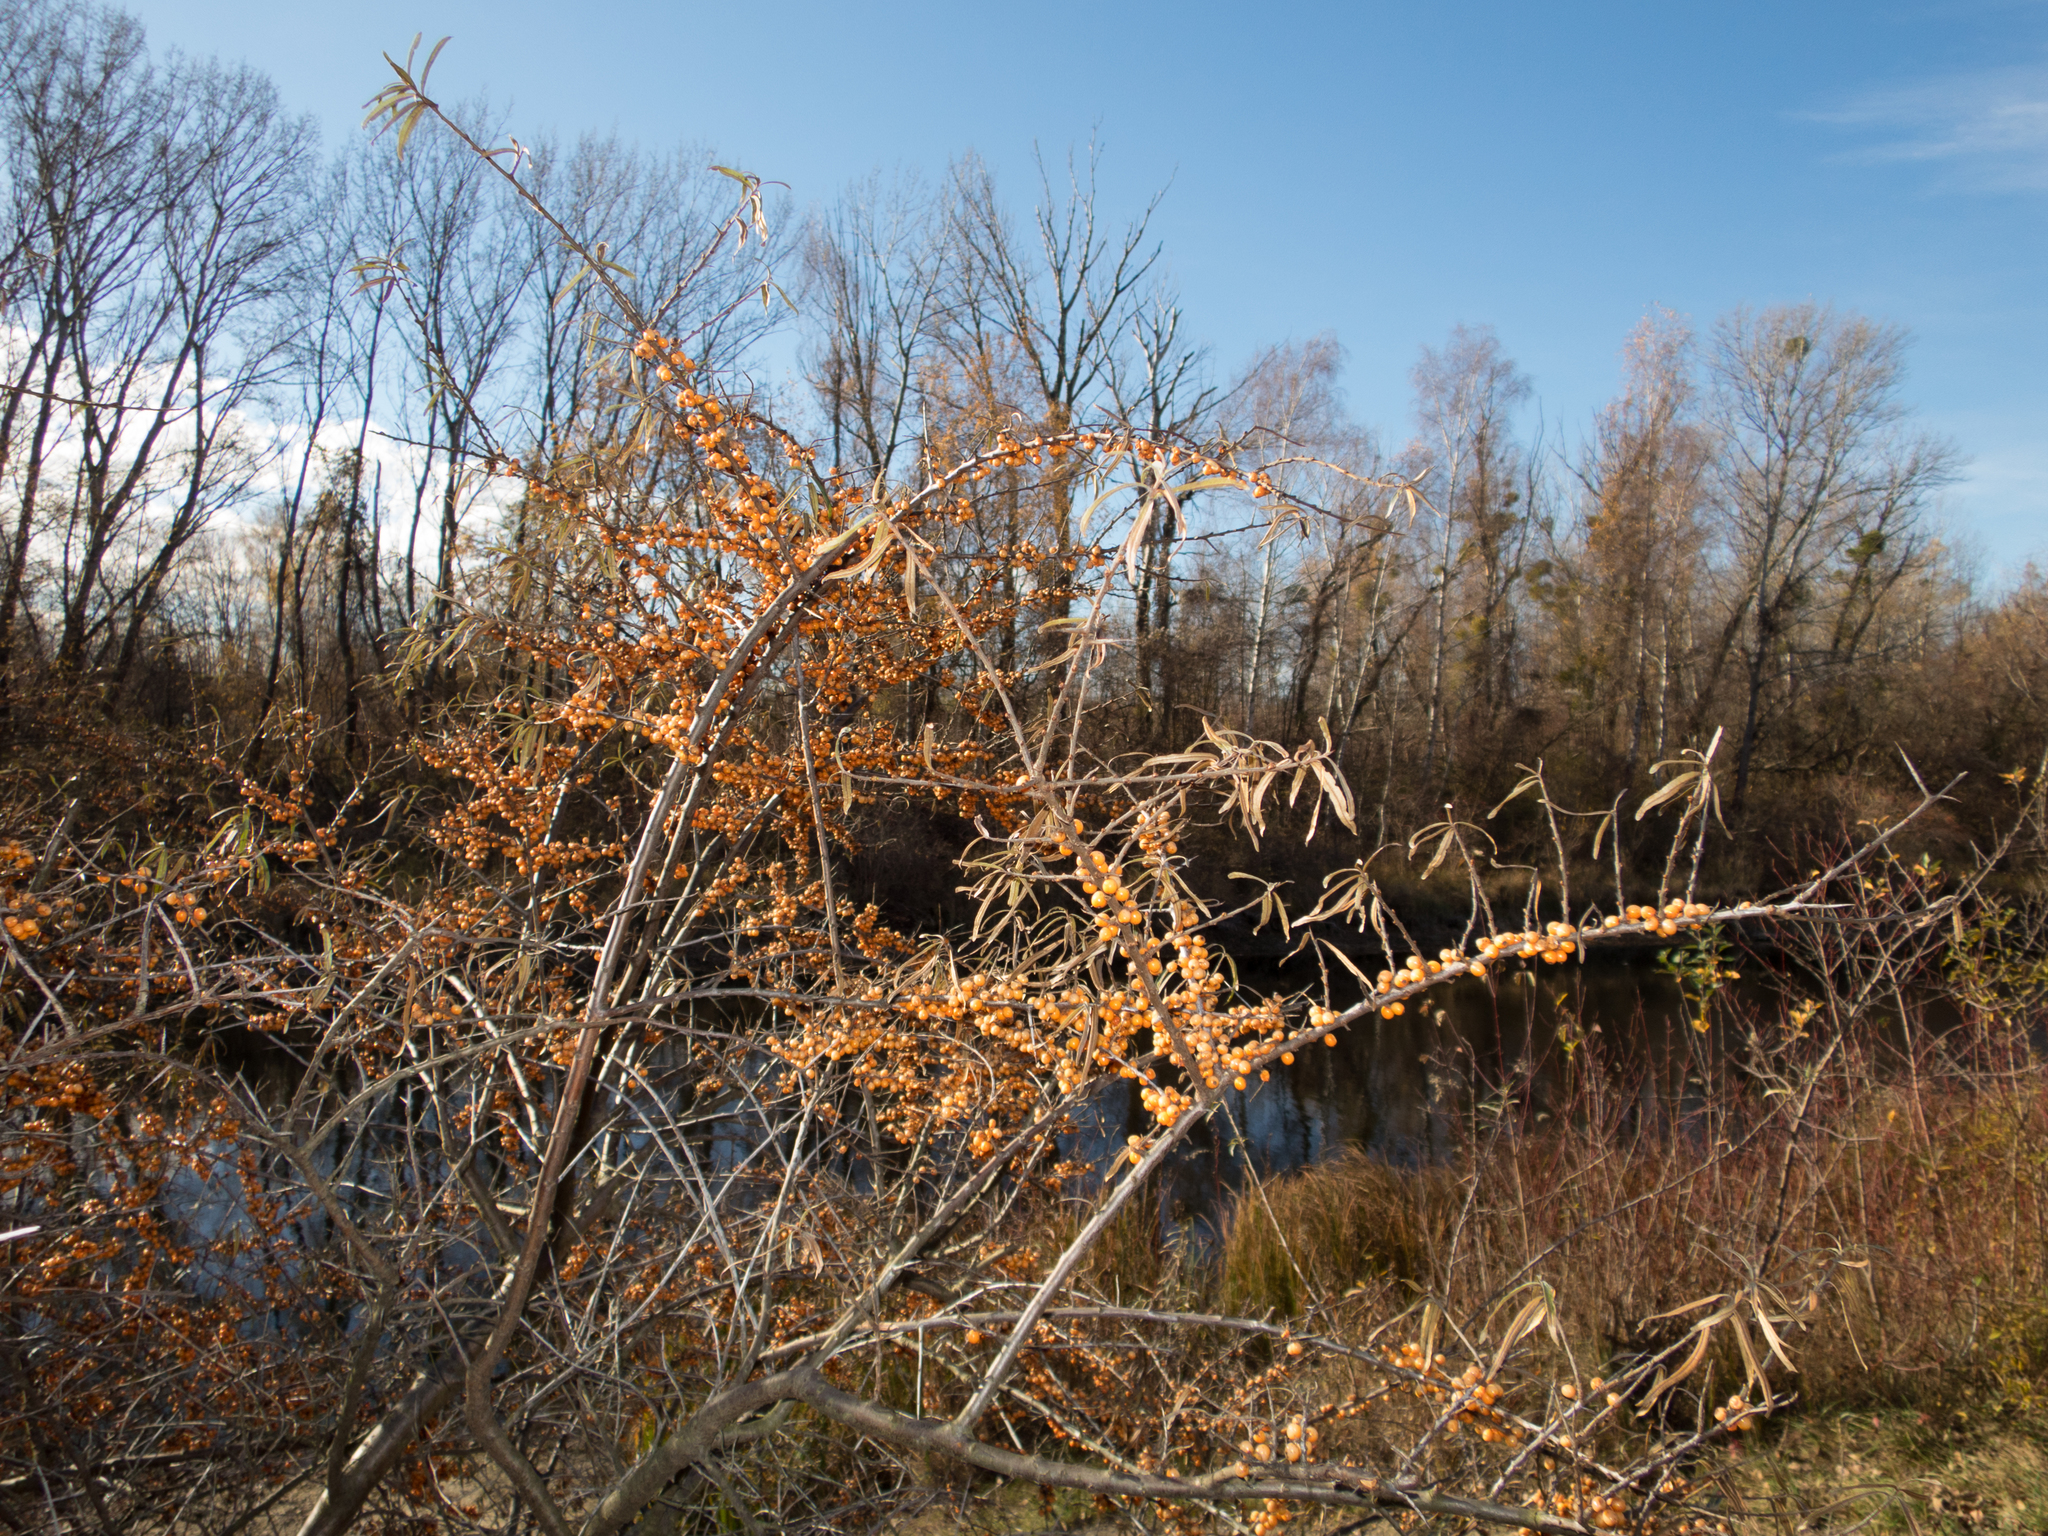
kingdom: Plantae
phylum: Tracheophyta
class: Magnoliopsida
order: Rosales
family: Elaeagnaceae
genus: Hippophae
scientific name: Hippophae rhamnoides
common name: Sea-buckthorn
